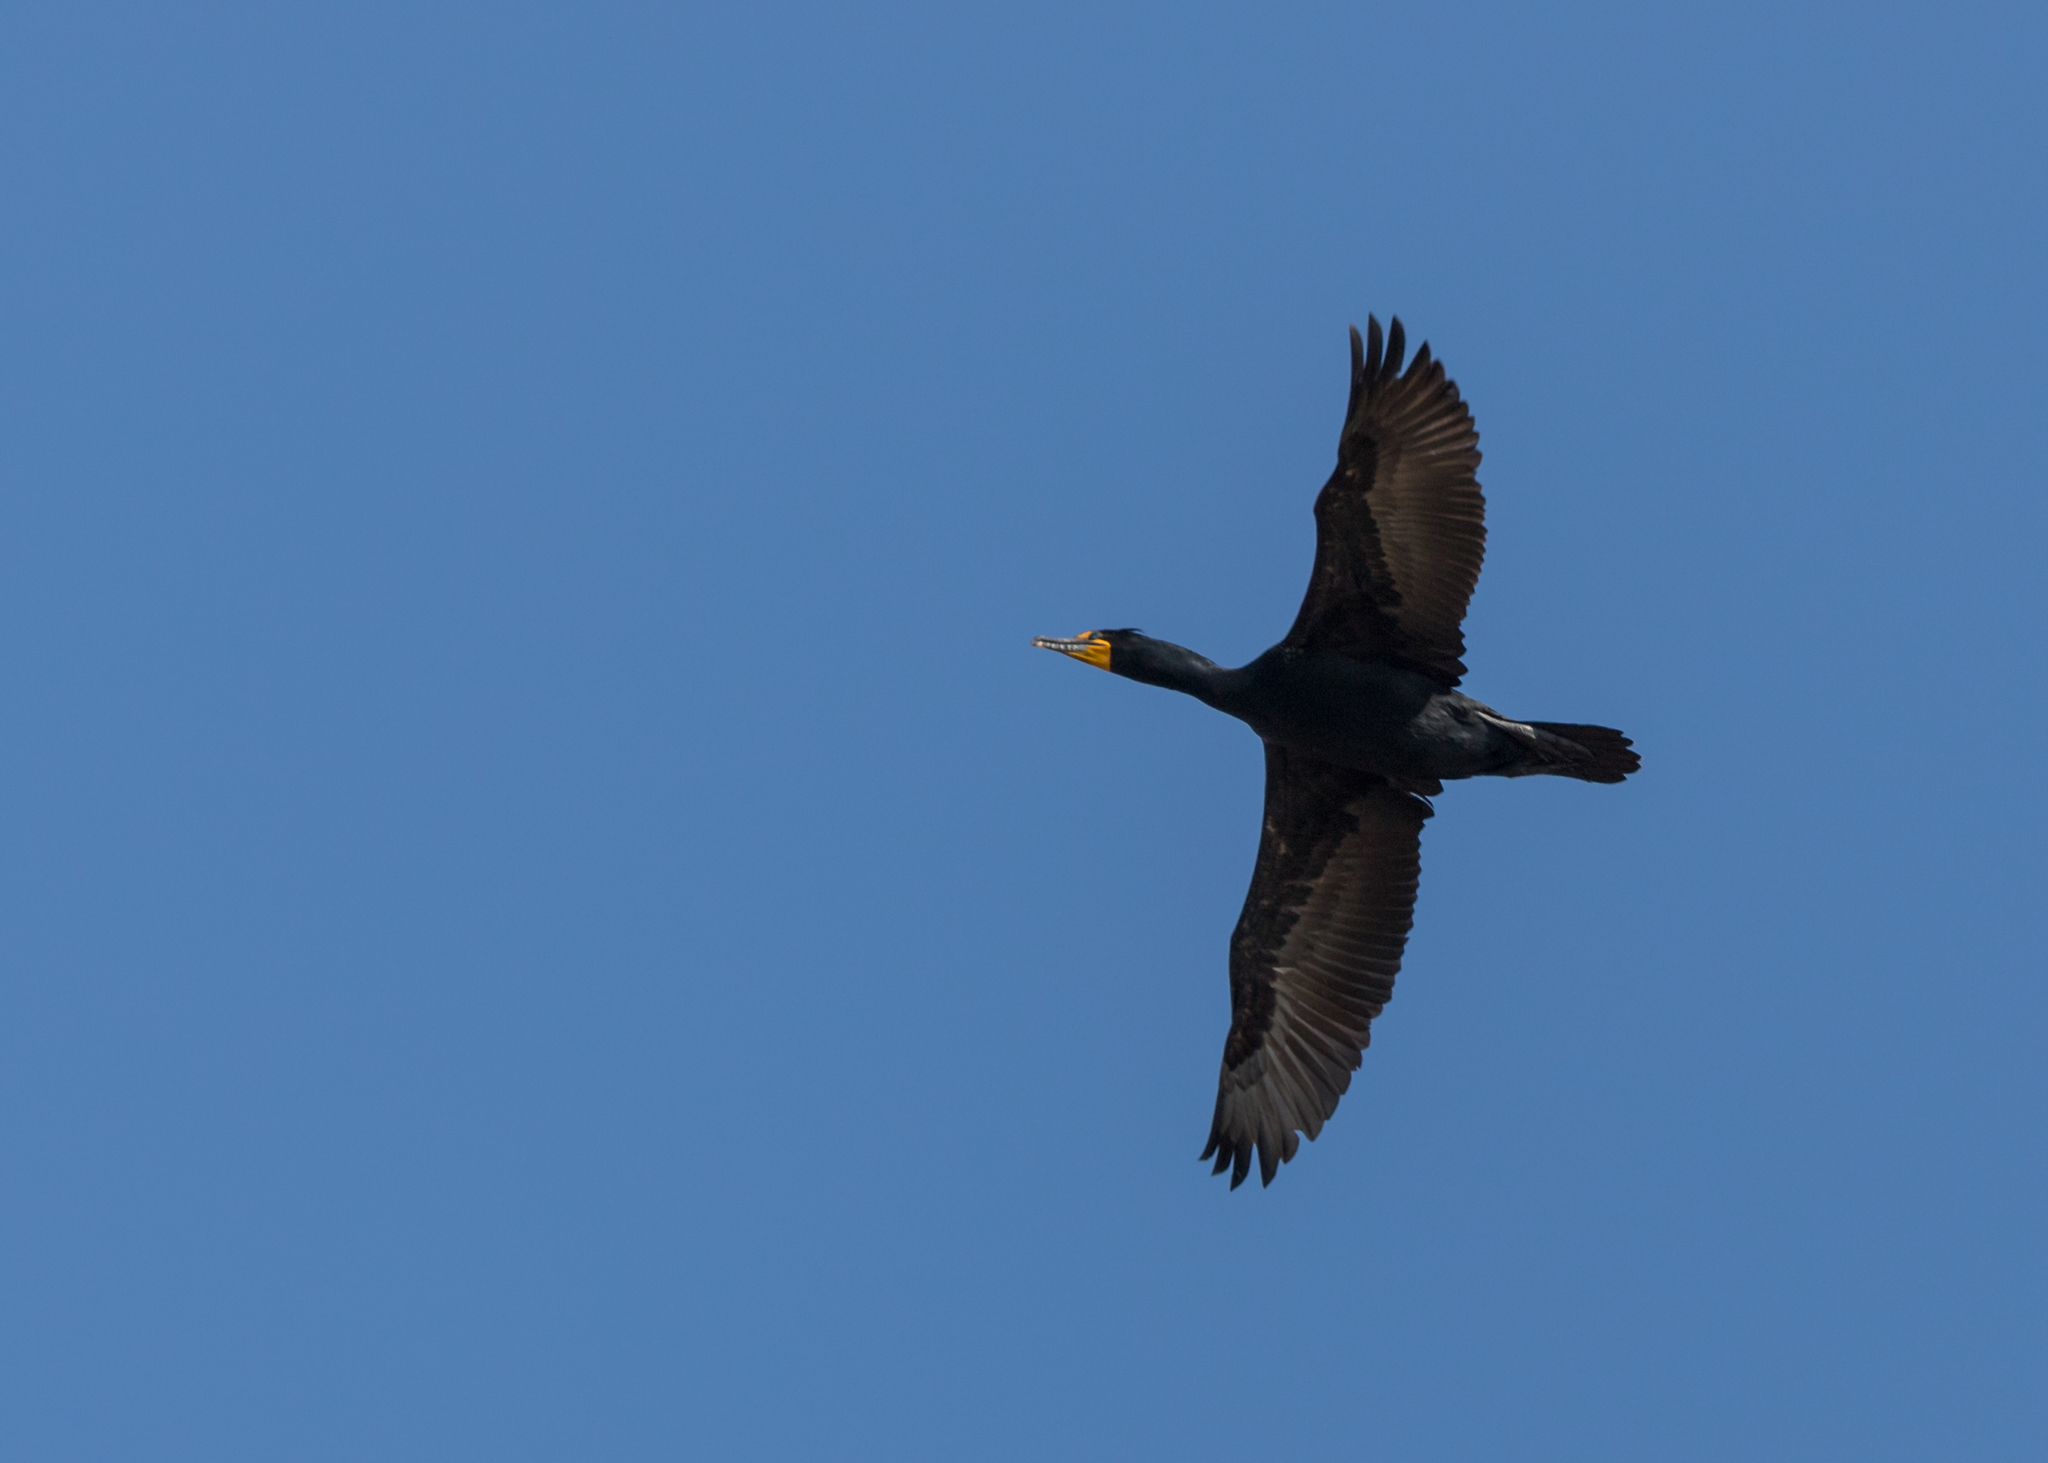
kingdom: Animalia
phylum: Chordata
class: Aves
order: Suliformes
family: Phalacrocoracidae
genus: Phalacrocorax
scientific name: Phalacrocorax auritus
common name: Double-crested cormorant
